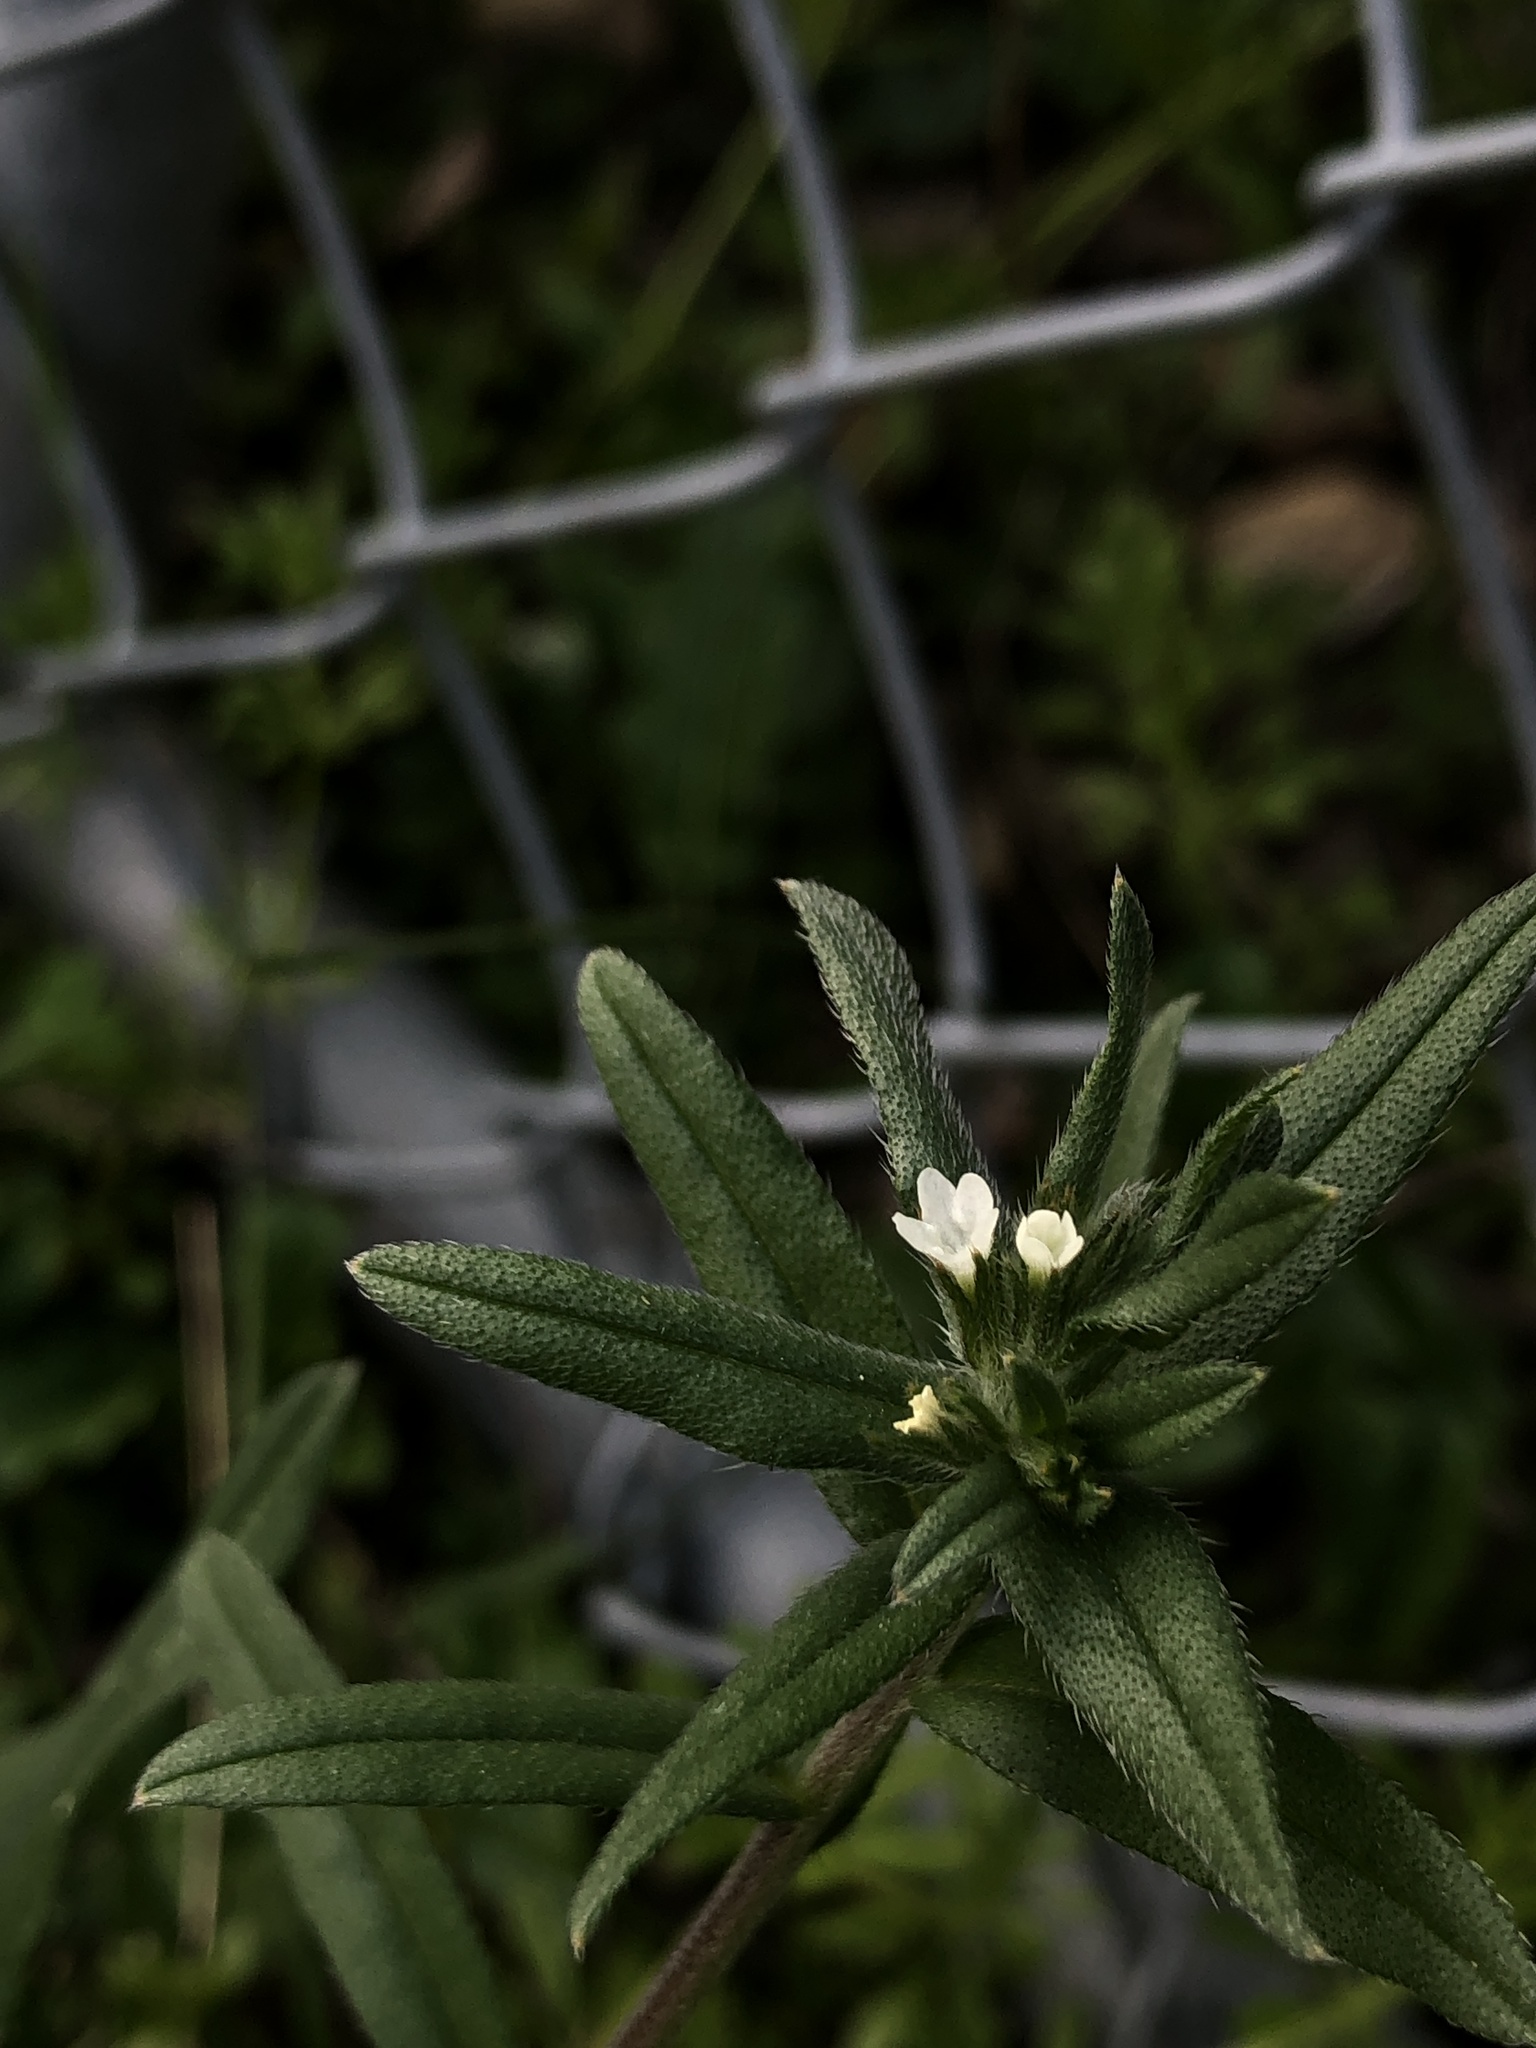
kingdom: Plantae
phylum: Tracheophyta
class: Magnoliopsida
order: Boraginales
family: Boraginaceae
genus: Buglossoides
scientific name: Buglossoides arvensis
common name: Corn gromwell
